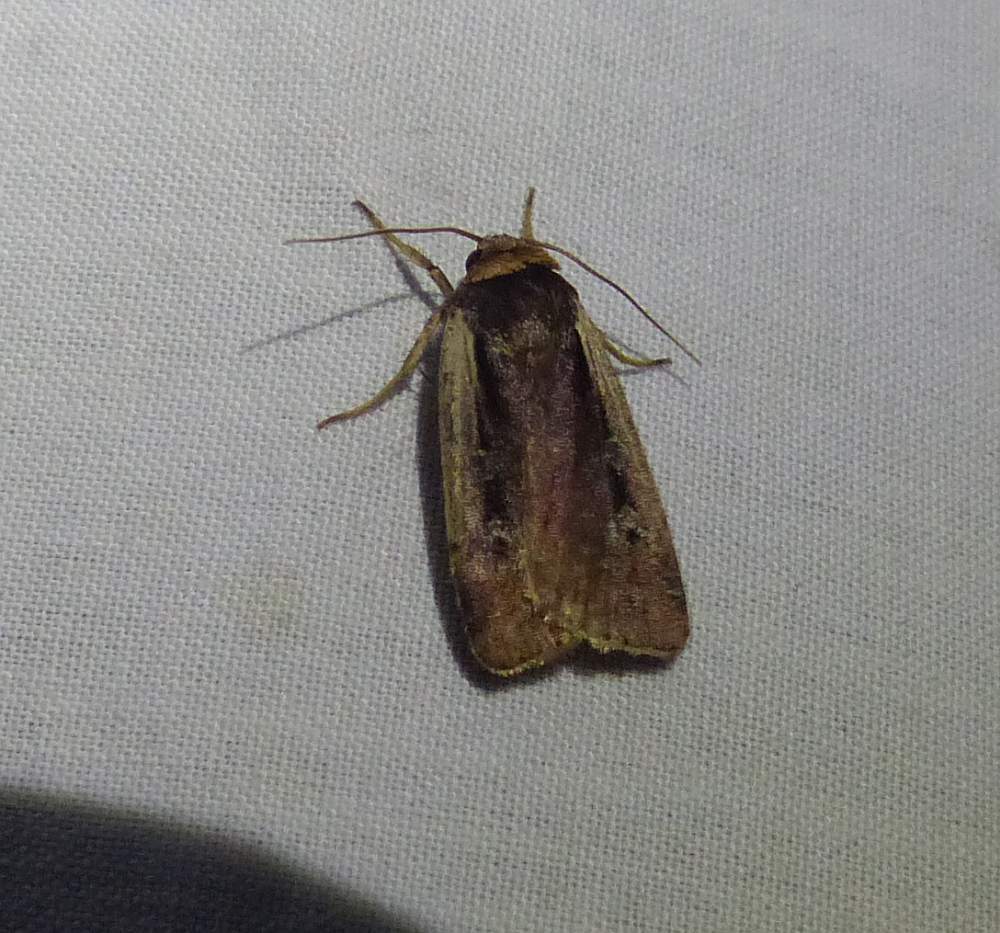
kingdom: Animalia
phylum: Arthropoda
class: Insecta
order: Lepidoptera
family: Noctuidae
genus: Ochropleura
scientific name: Ochropleura implecta
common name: Flame-shouldered dart
